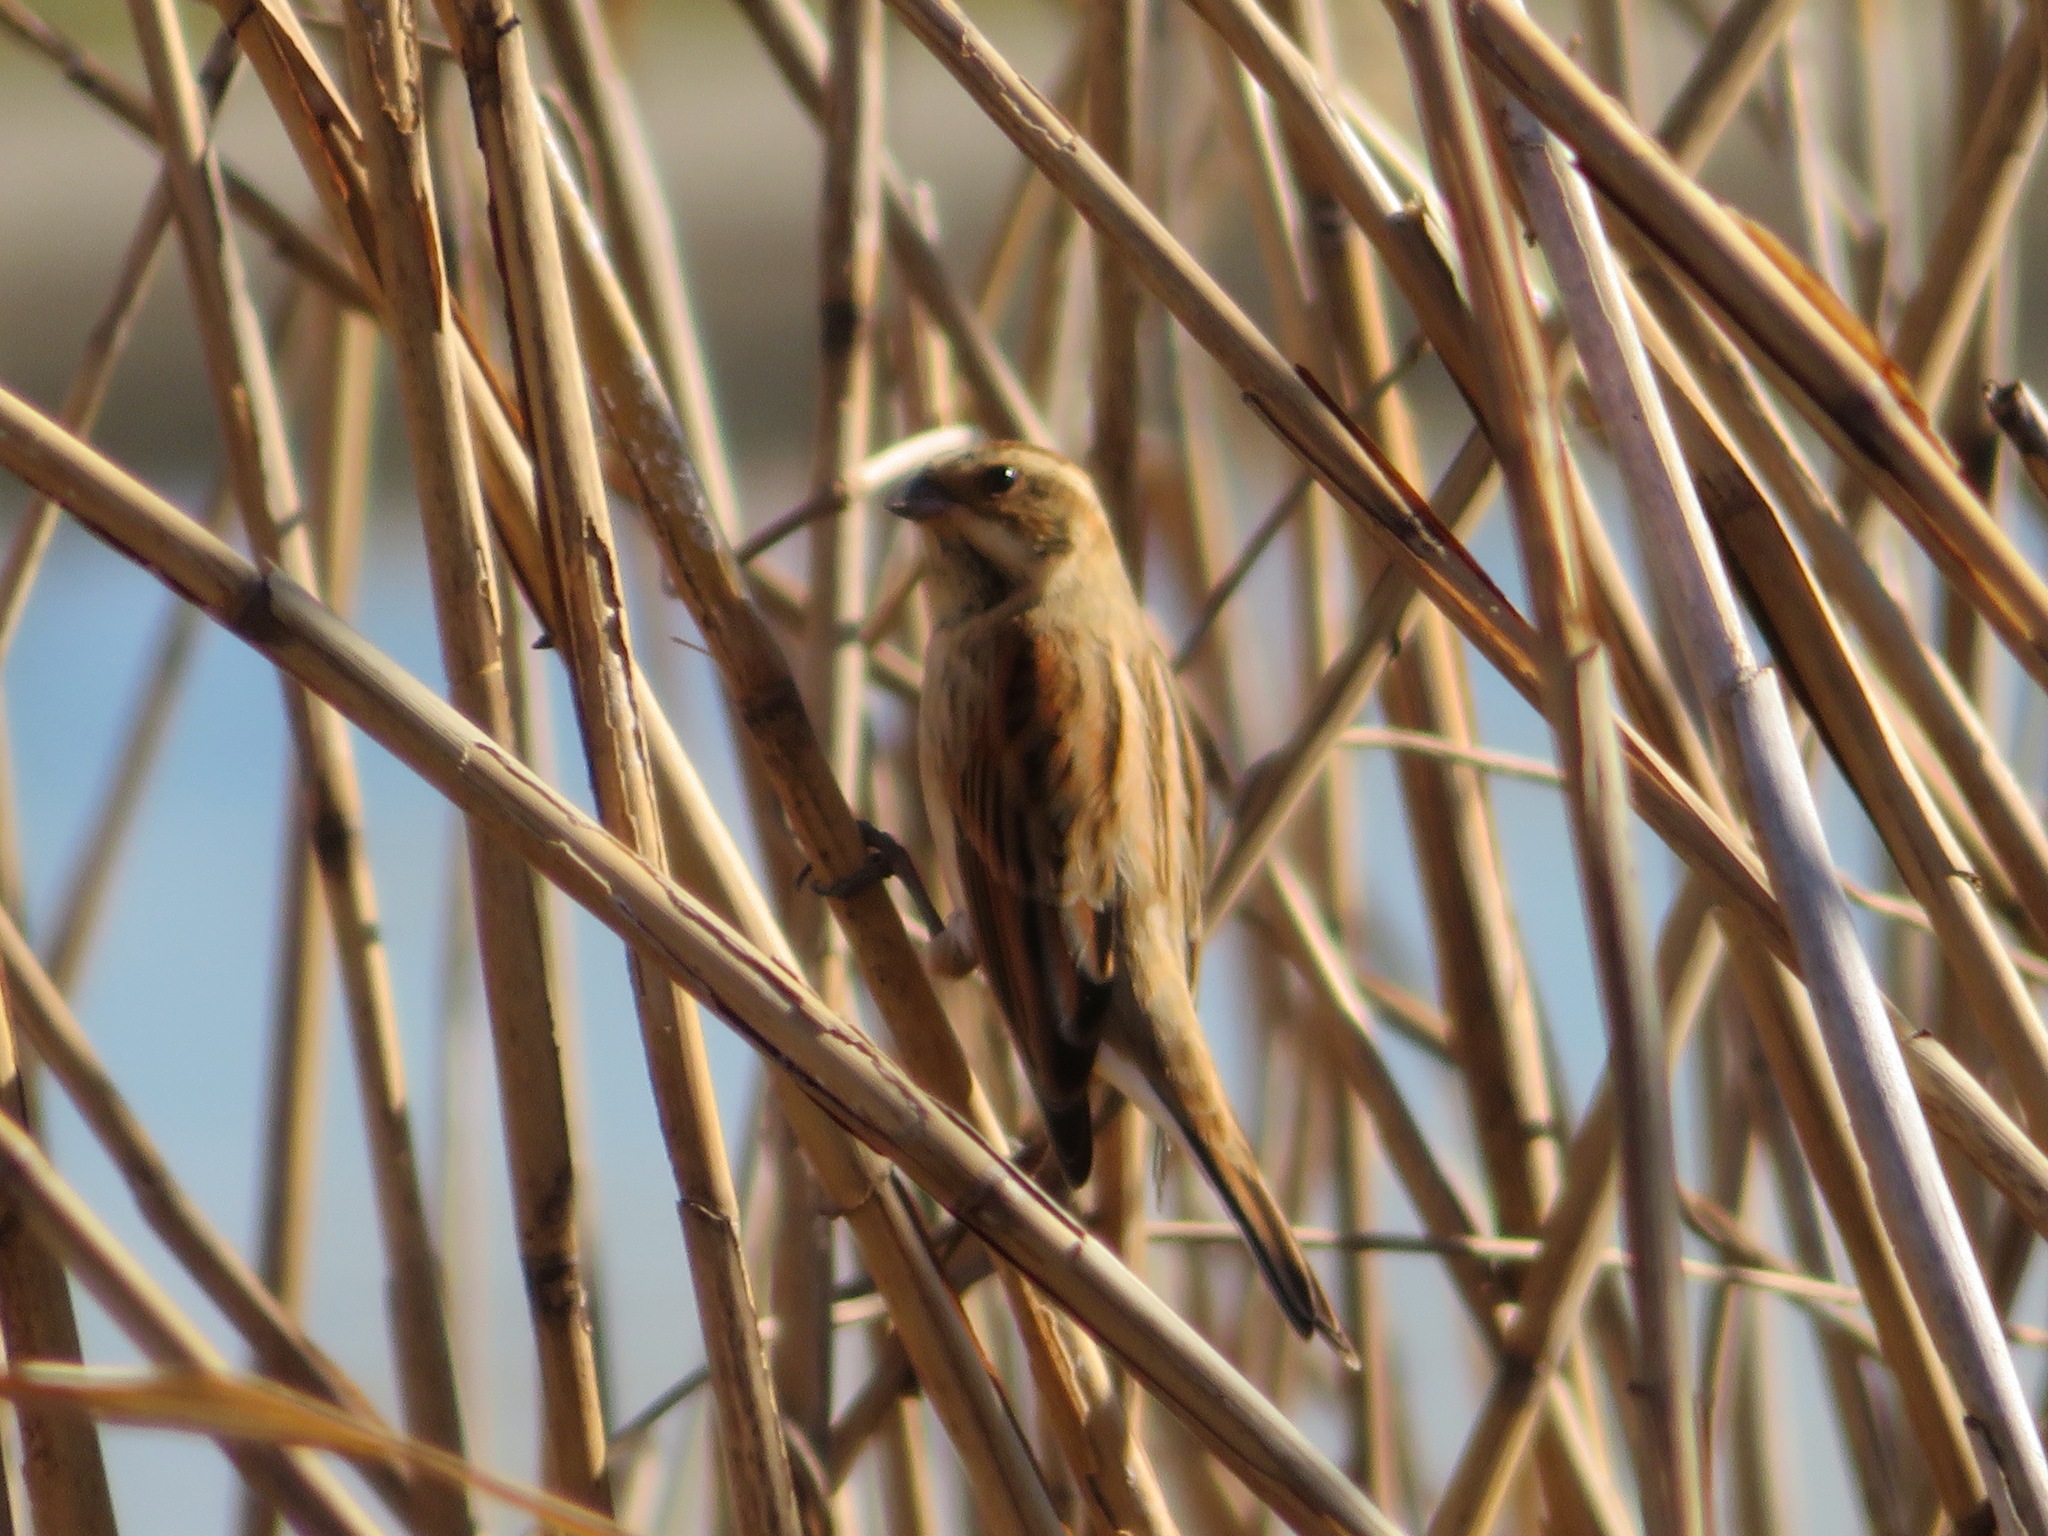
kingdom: Animalia
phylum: Chordata
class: Aves
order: Passeriformes
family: Emberizidae
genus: Emberiza
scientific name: Emberiza schoeniclus
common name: Reed bunting
